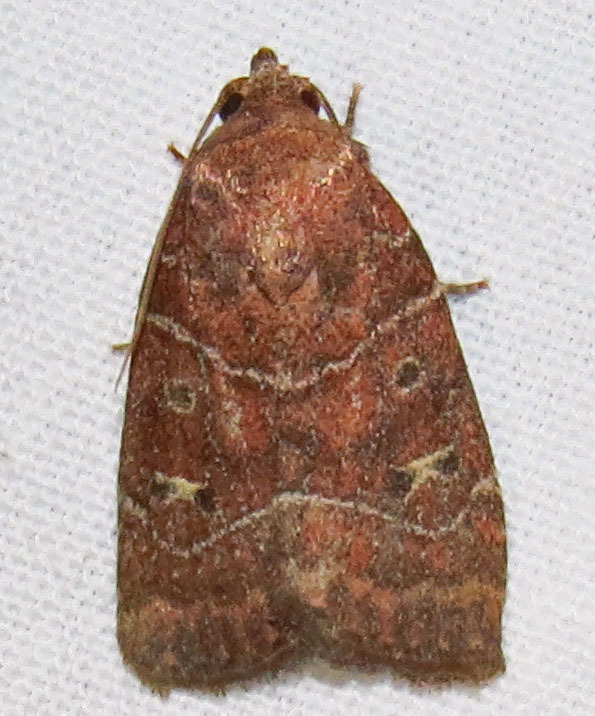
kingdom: Animalia
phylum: Arthropoda
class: Insecta
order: Lepidoptera
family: Noctuidae
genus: Elaphria
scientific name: Elaphria grata
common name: Grateful midget moth
